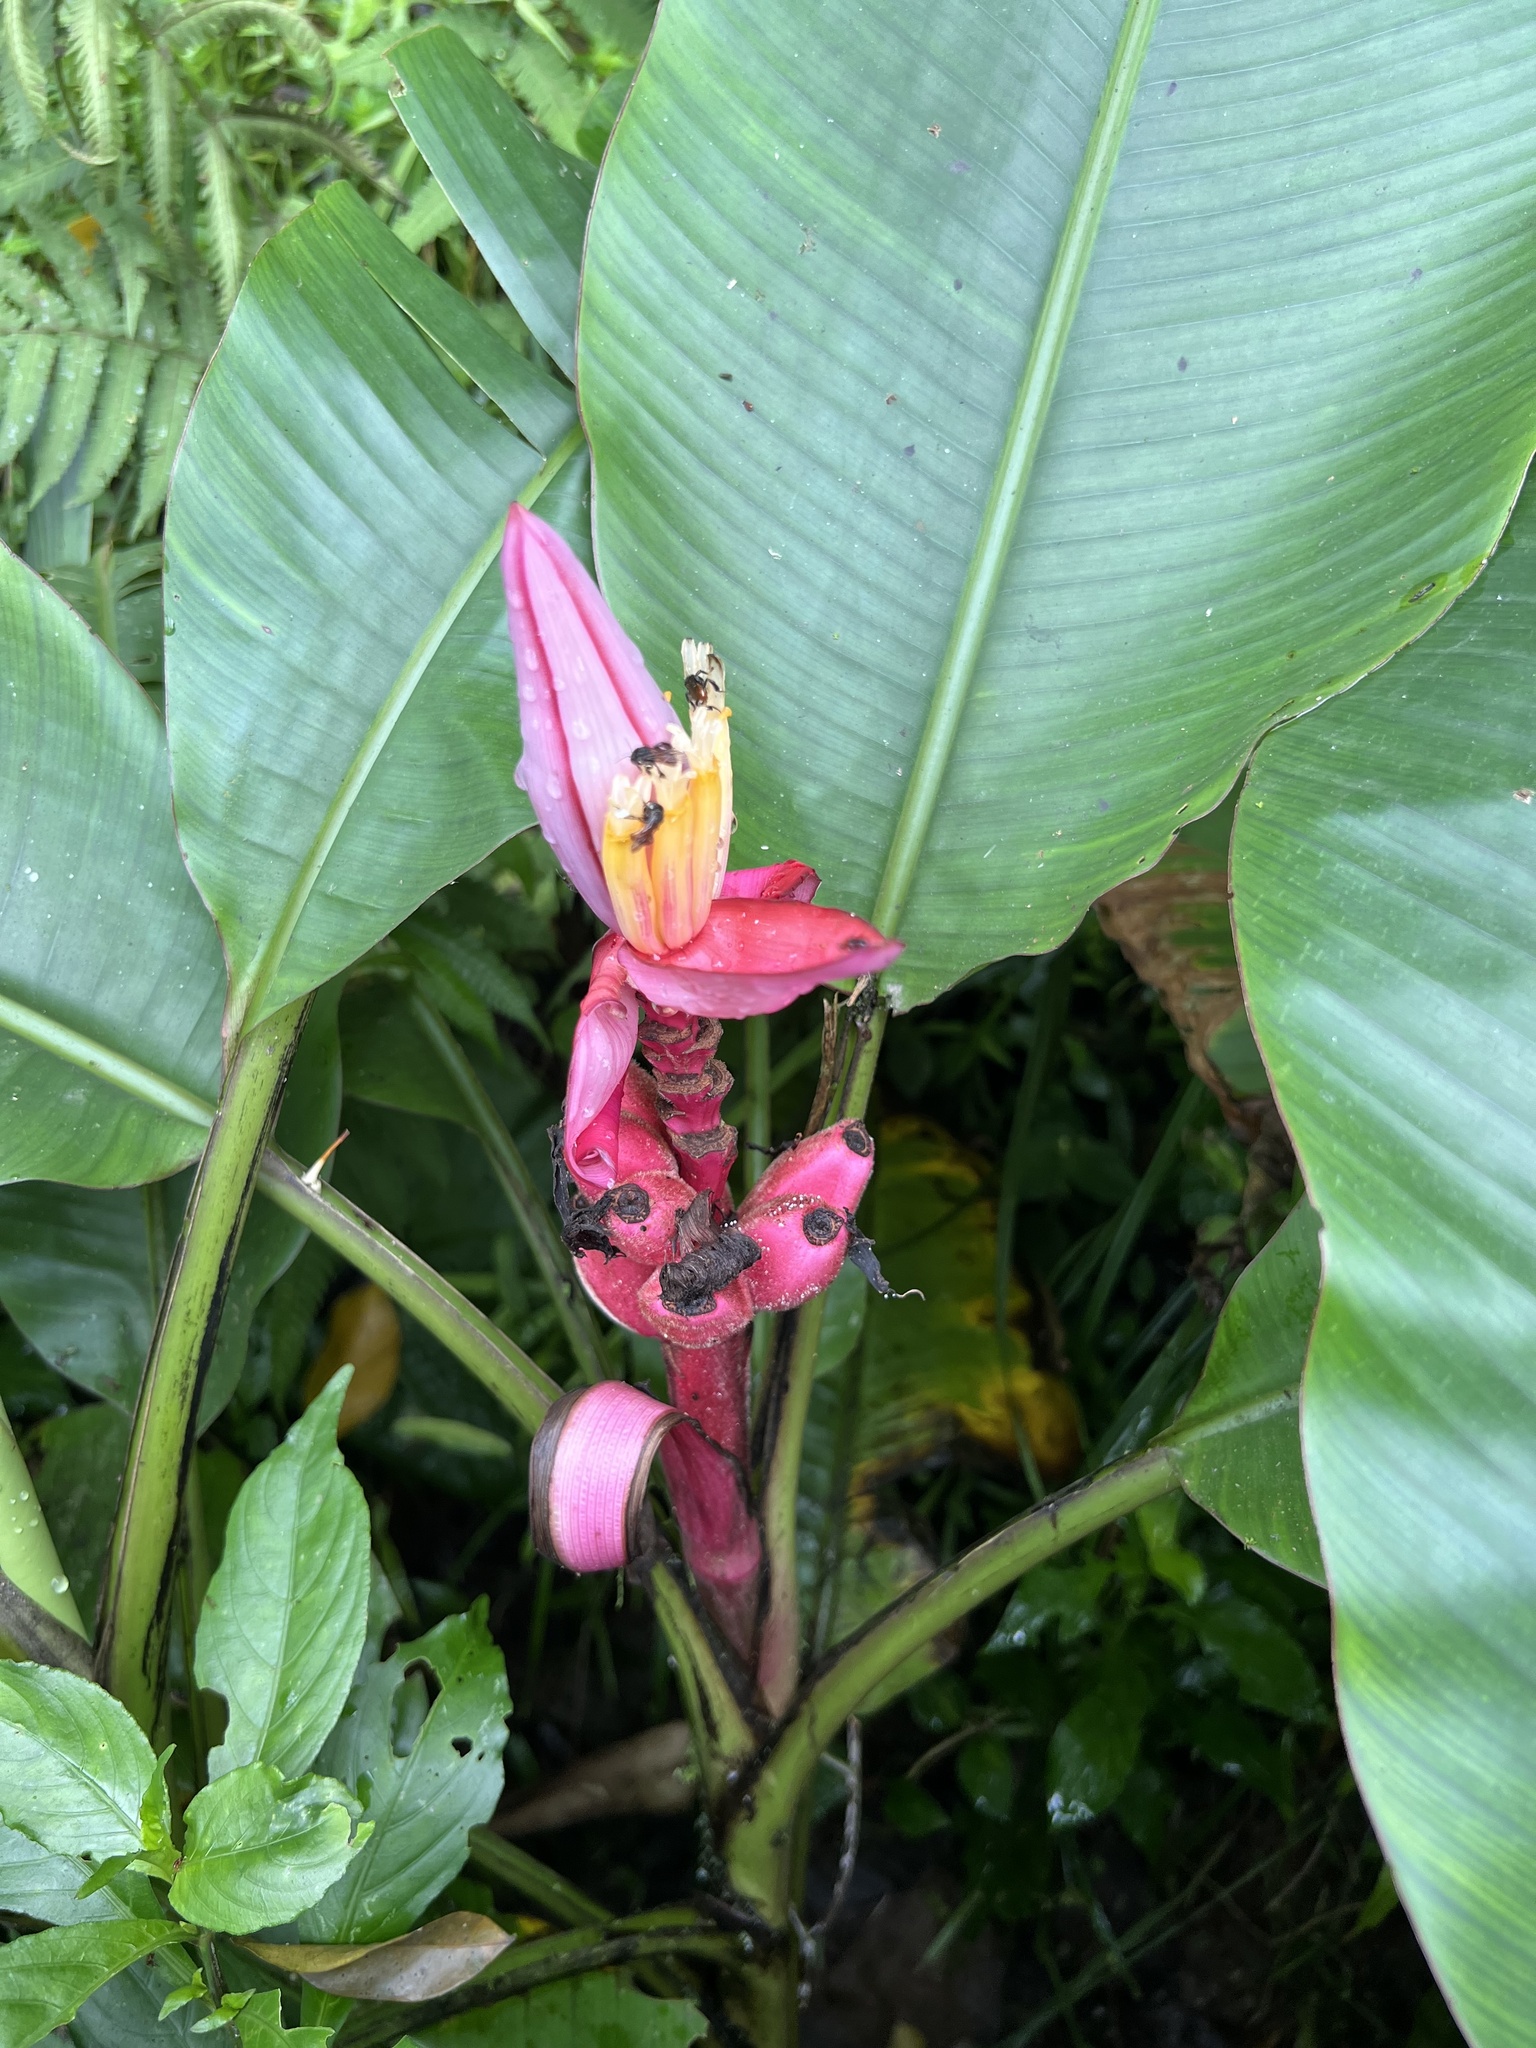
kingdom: Plantae
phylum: Tracheophyta
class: Liliopsida
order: Zingiberales
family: Musaceae
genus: Musa
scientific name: Musa velutina
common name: Pink velvet banana
